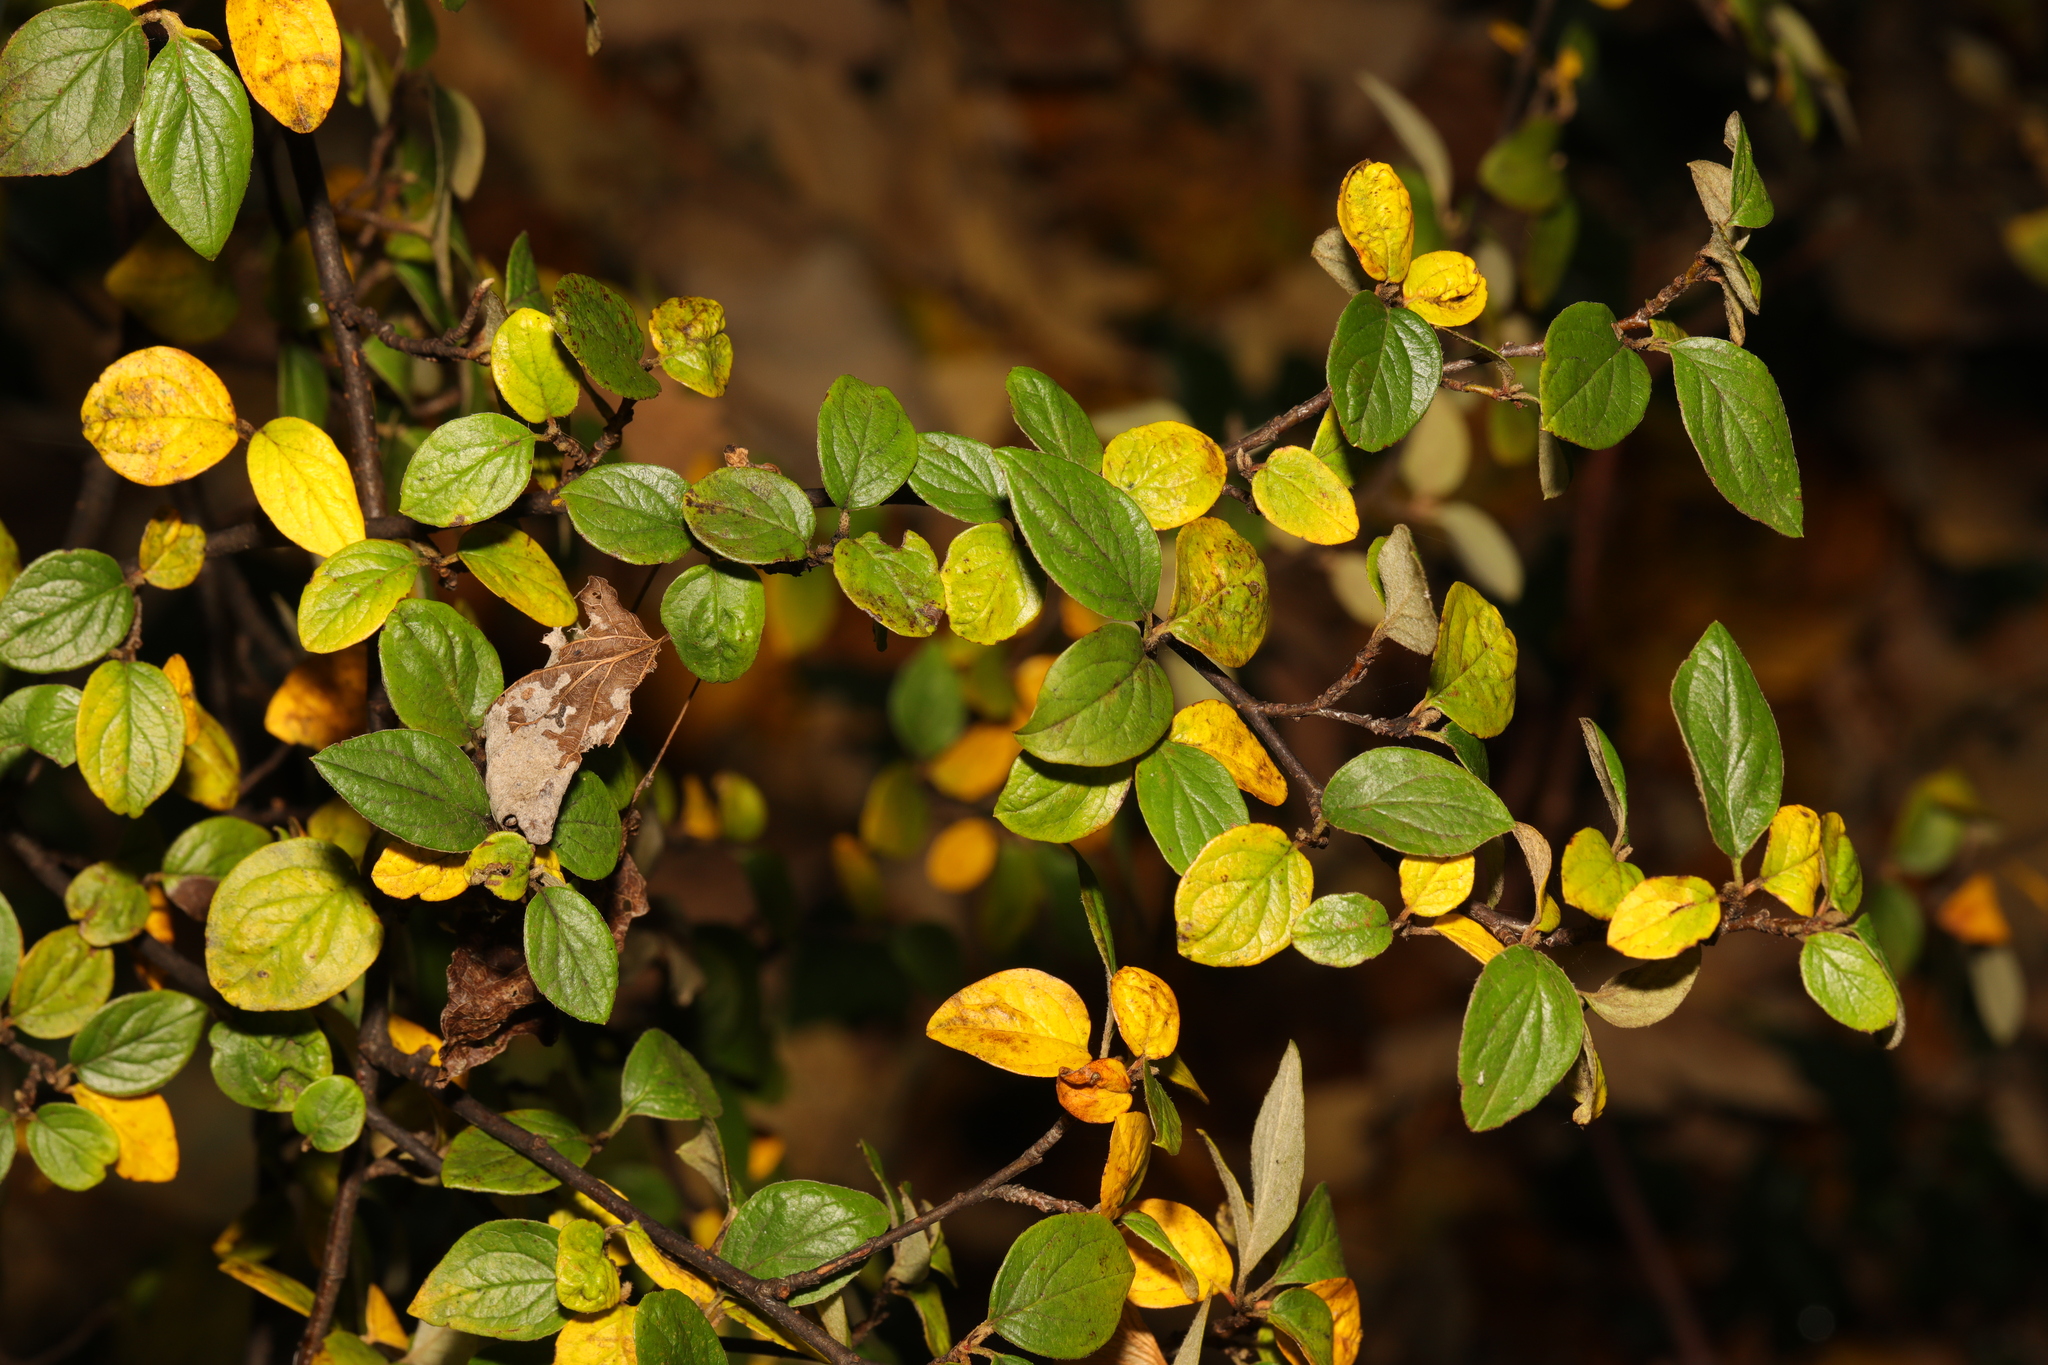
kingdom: Plantae
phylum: Tracheophyta
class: Magnoliopsida
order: Rosales
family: Rosaceae
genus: Cotoneaster
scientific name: Cotoneaster
